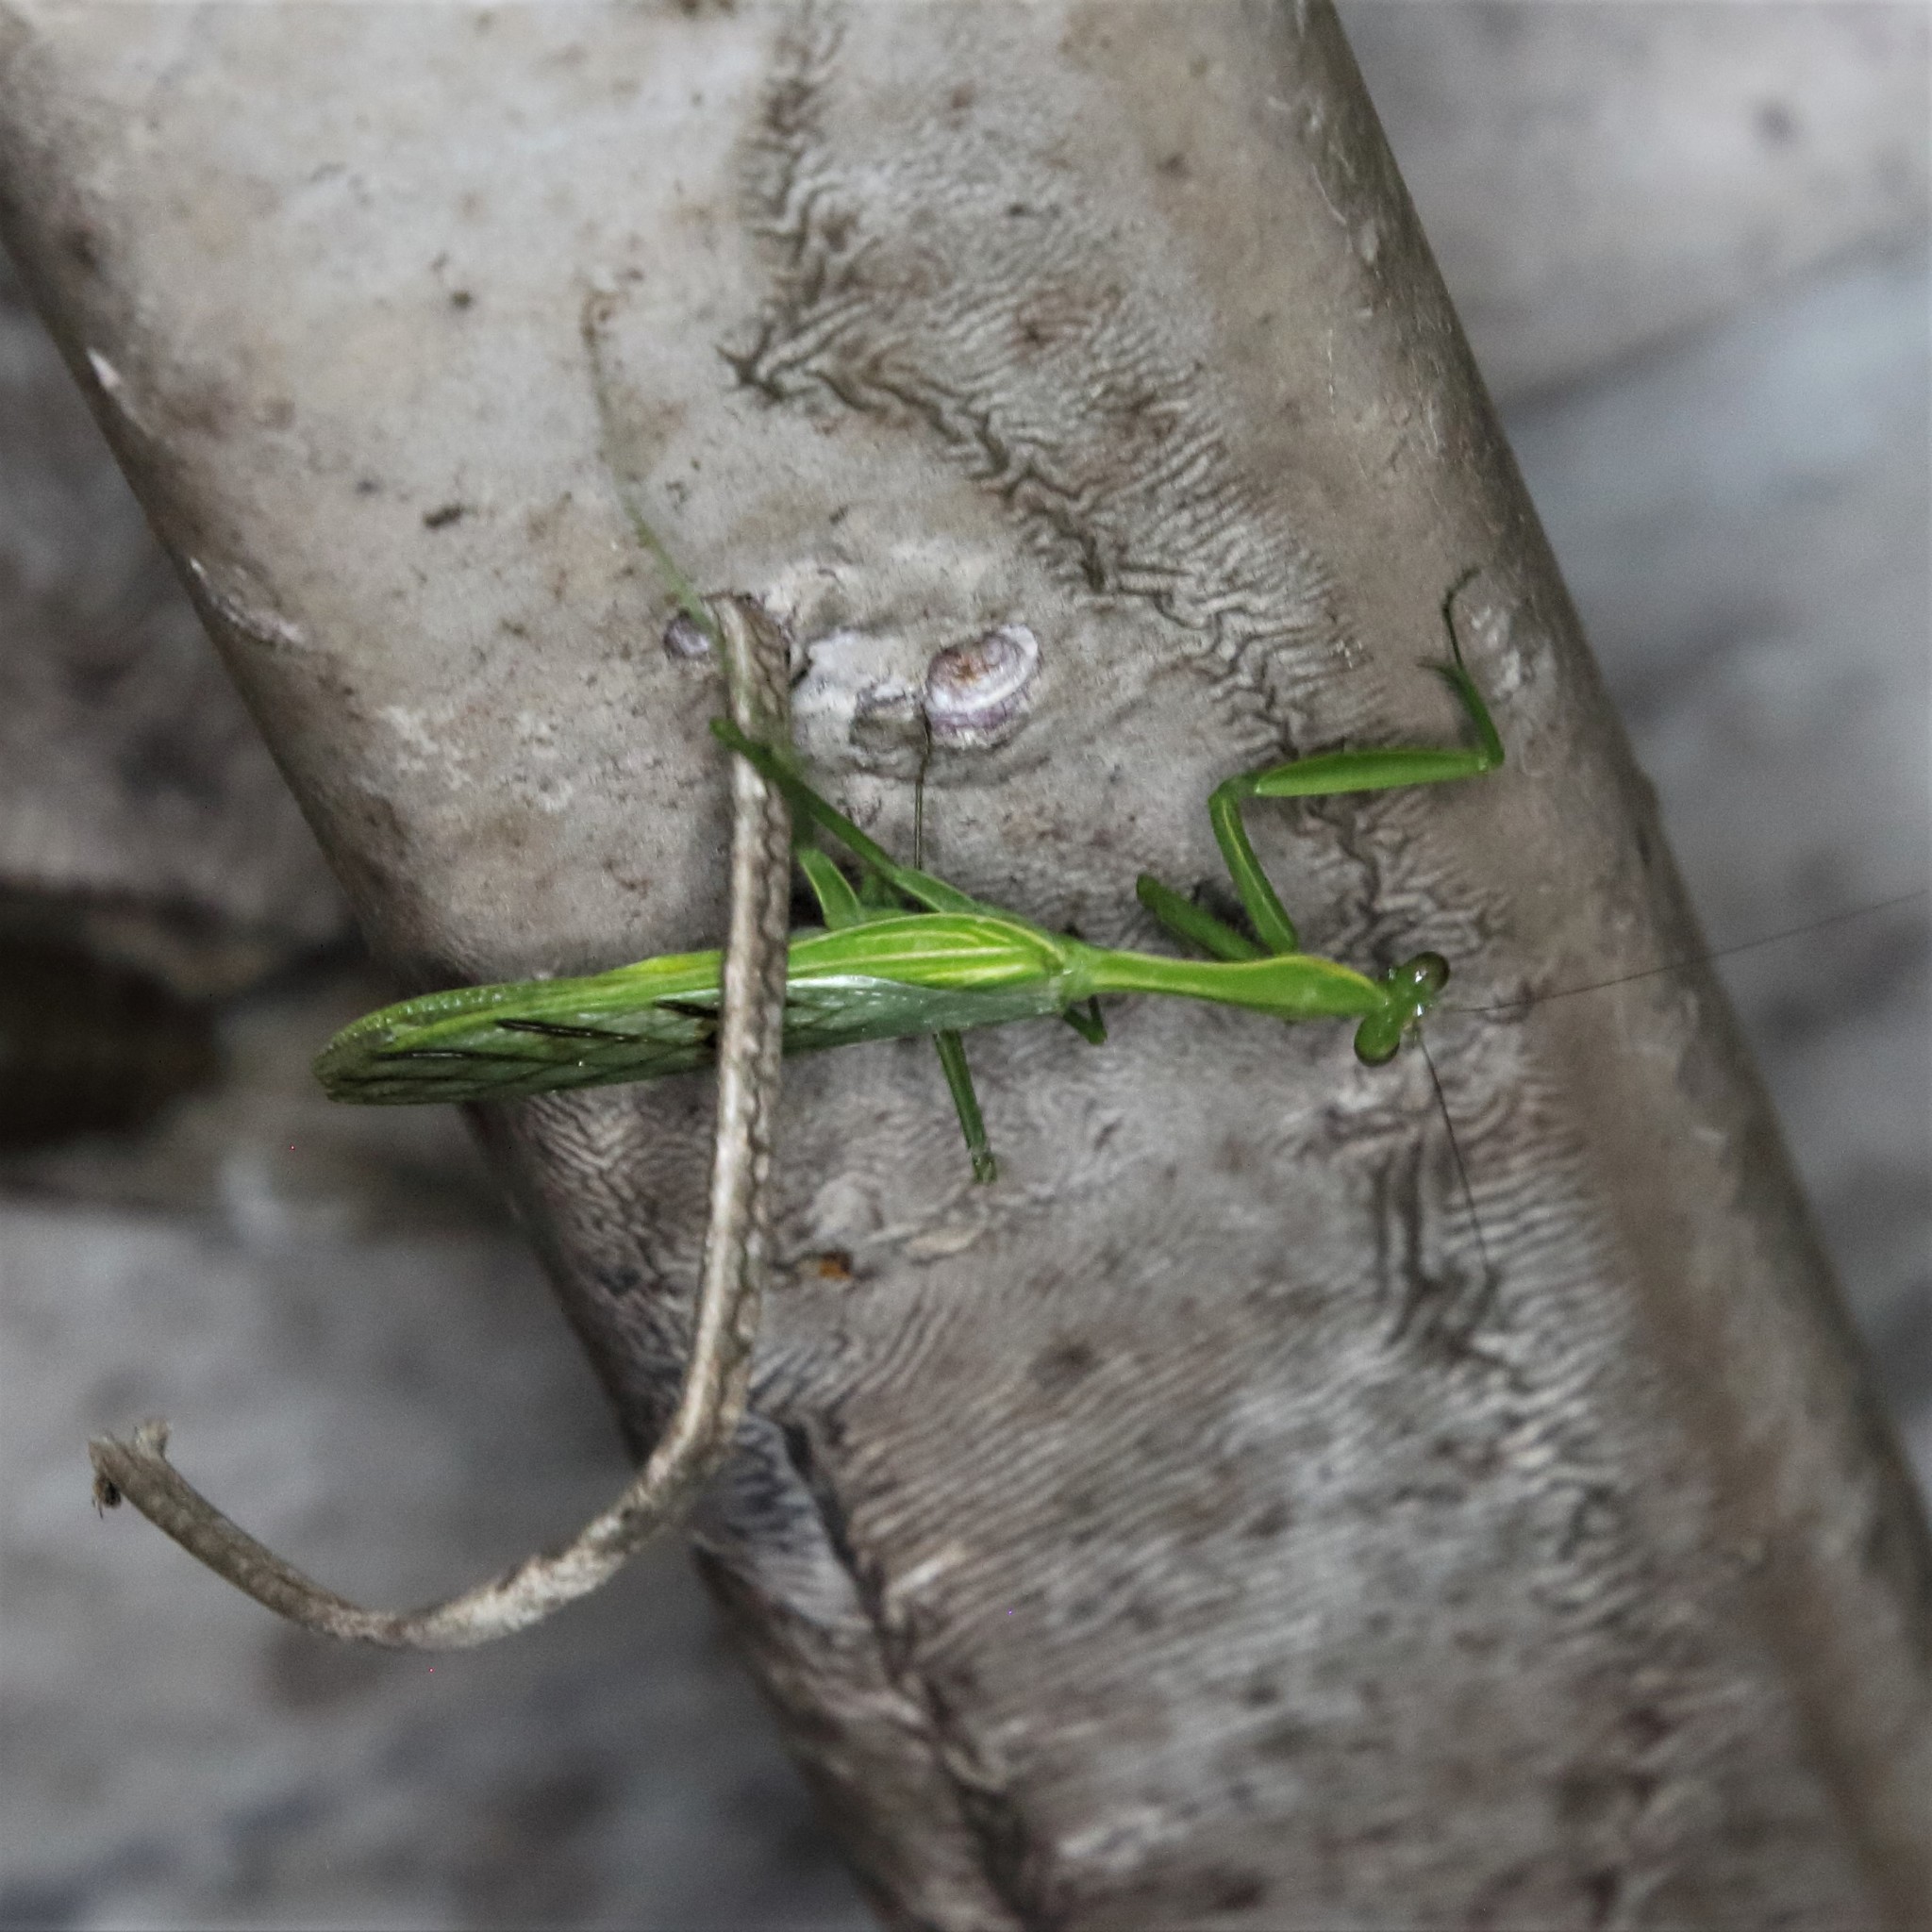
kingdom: Animalia
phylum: Arthropoda
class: Insecta
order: Mantodea
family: Mantidae
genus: Chlorocalis
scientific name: Chlorocalis maternaschulzei
